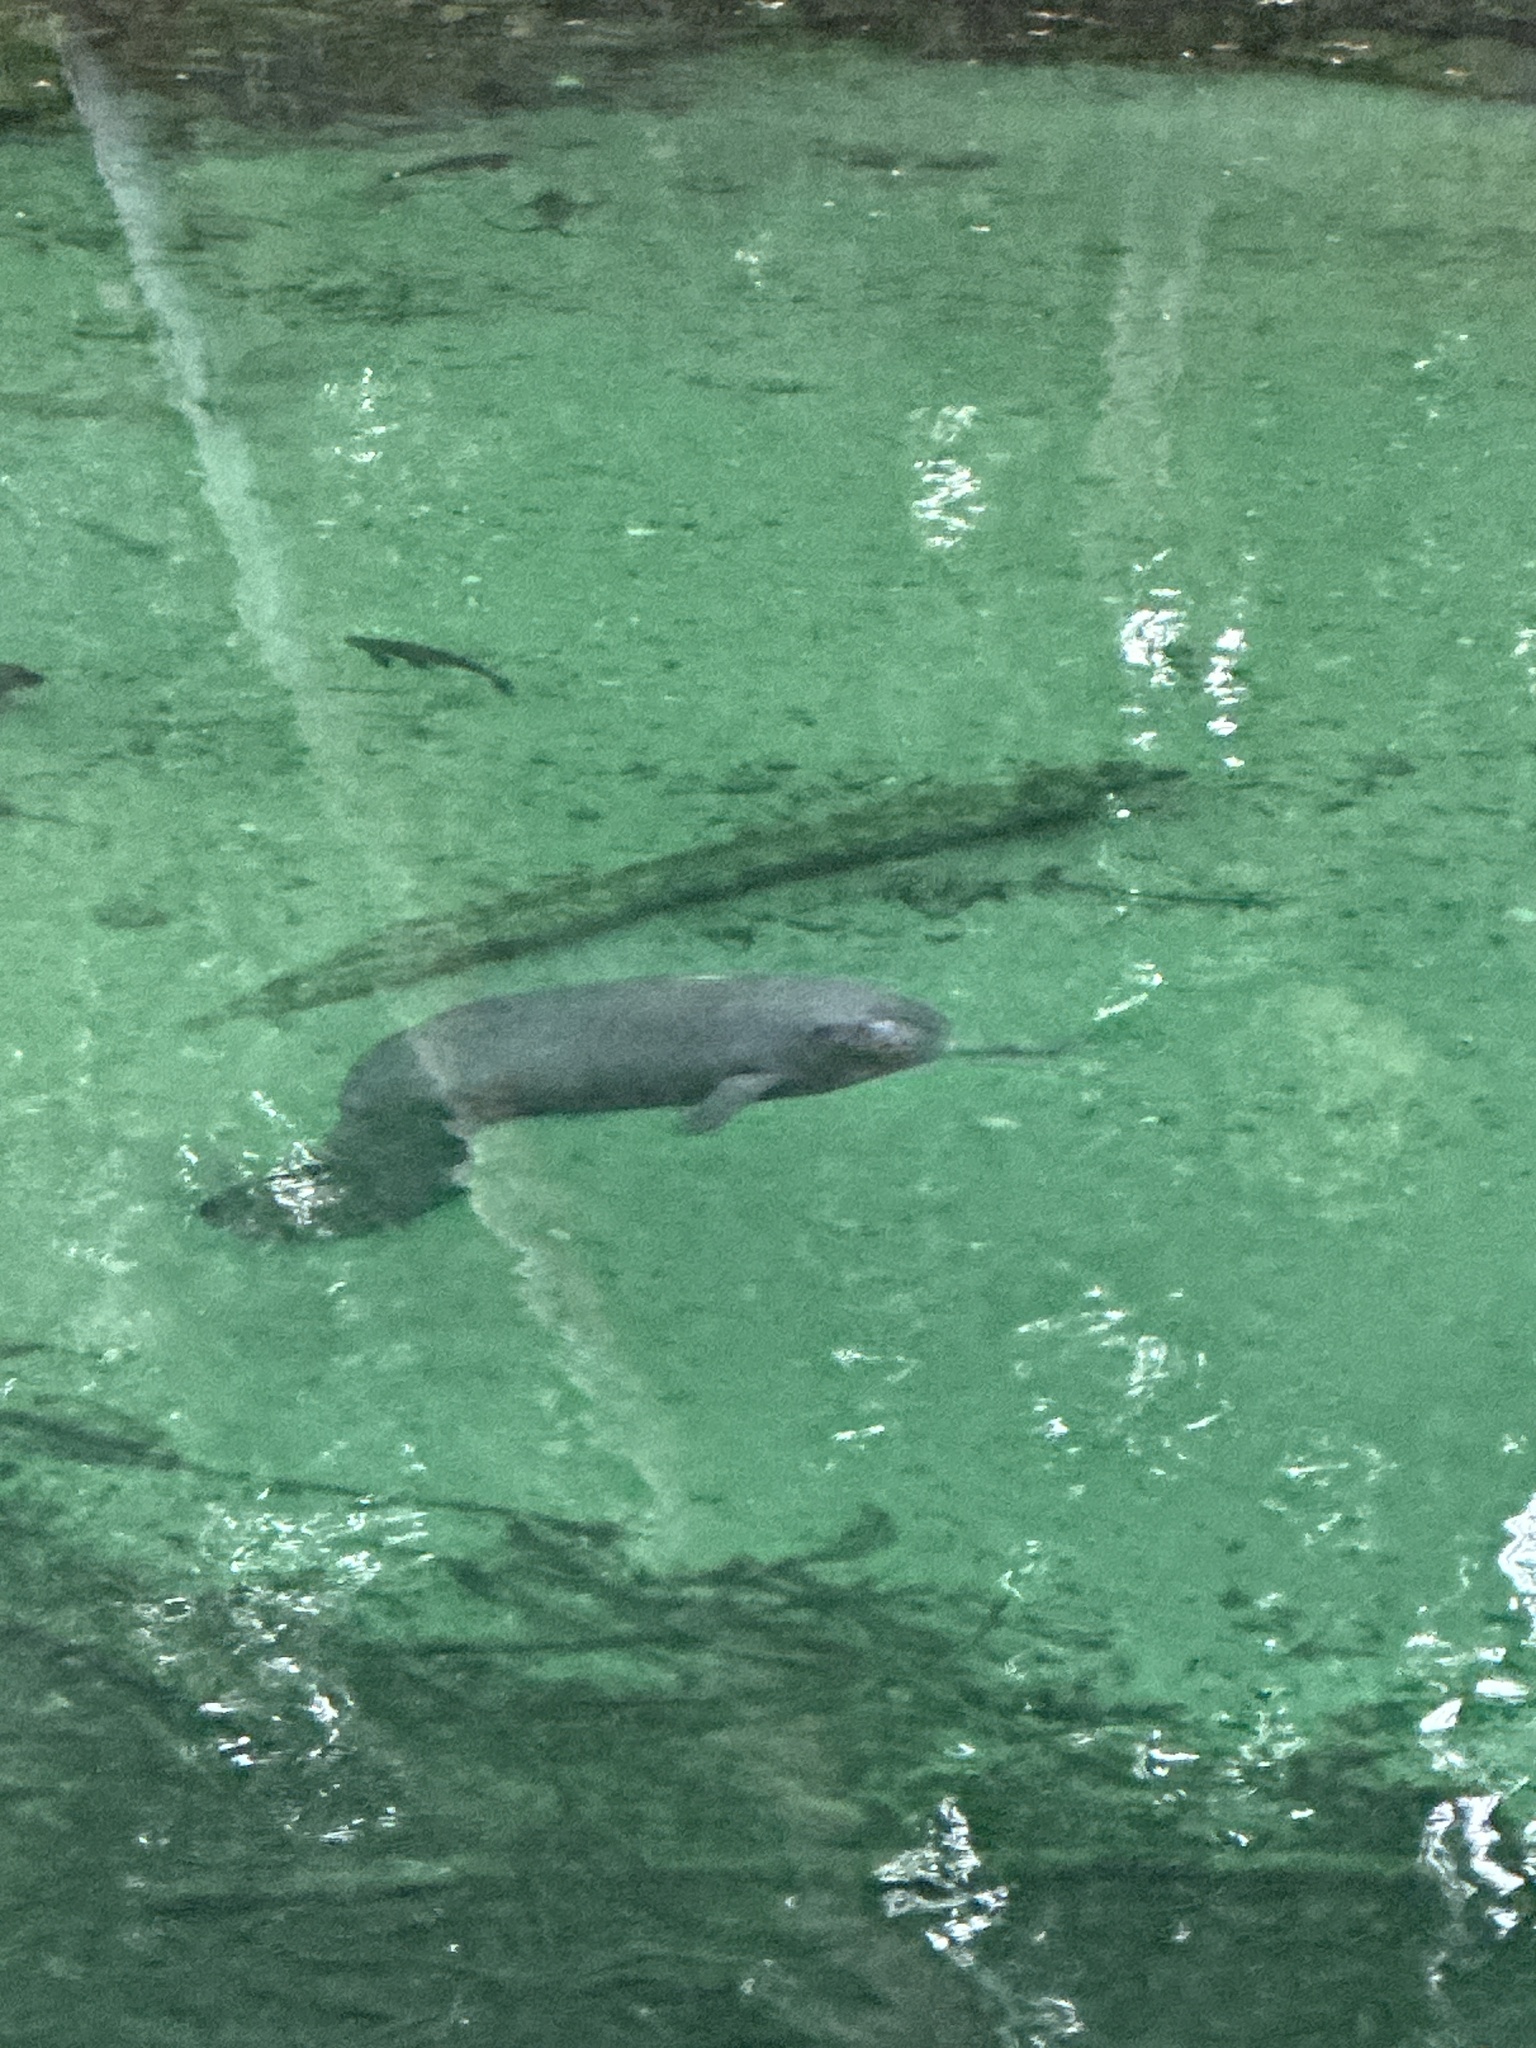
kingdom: Animalia
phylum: Chordata
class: Mammalia
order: Sirenia
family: Trichechidae
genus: Trichechus
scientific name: Trichechus manatus
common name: West indian manatee
